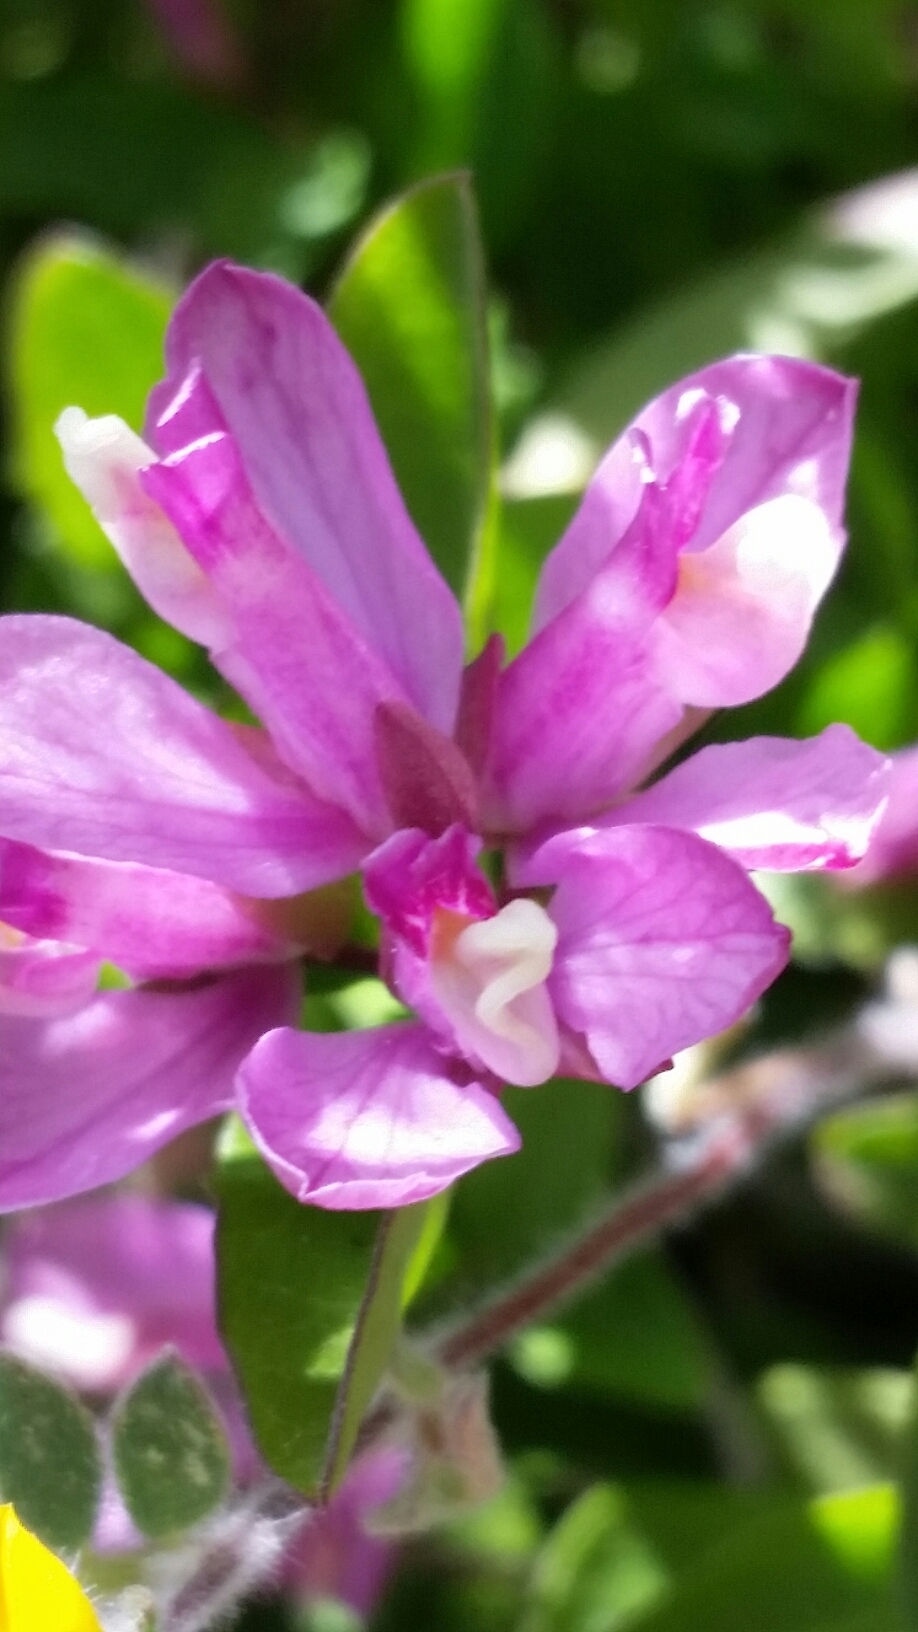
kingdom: Plantae
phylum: Tracheophyta
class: Magnoliopsida
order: Fabales
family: Polygalaceae
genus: Rhinotropis
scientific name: Rhinotropis californica
